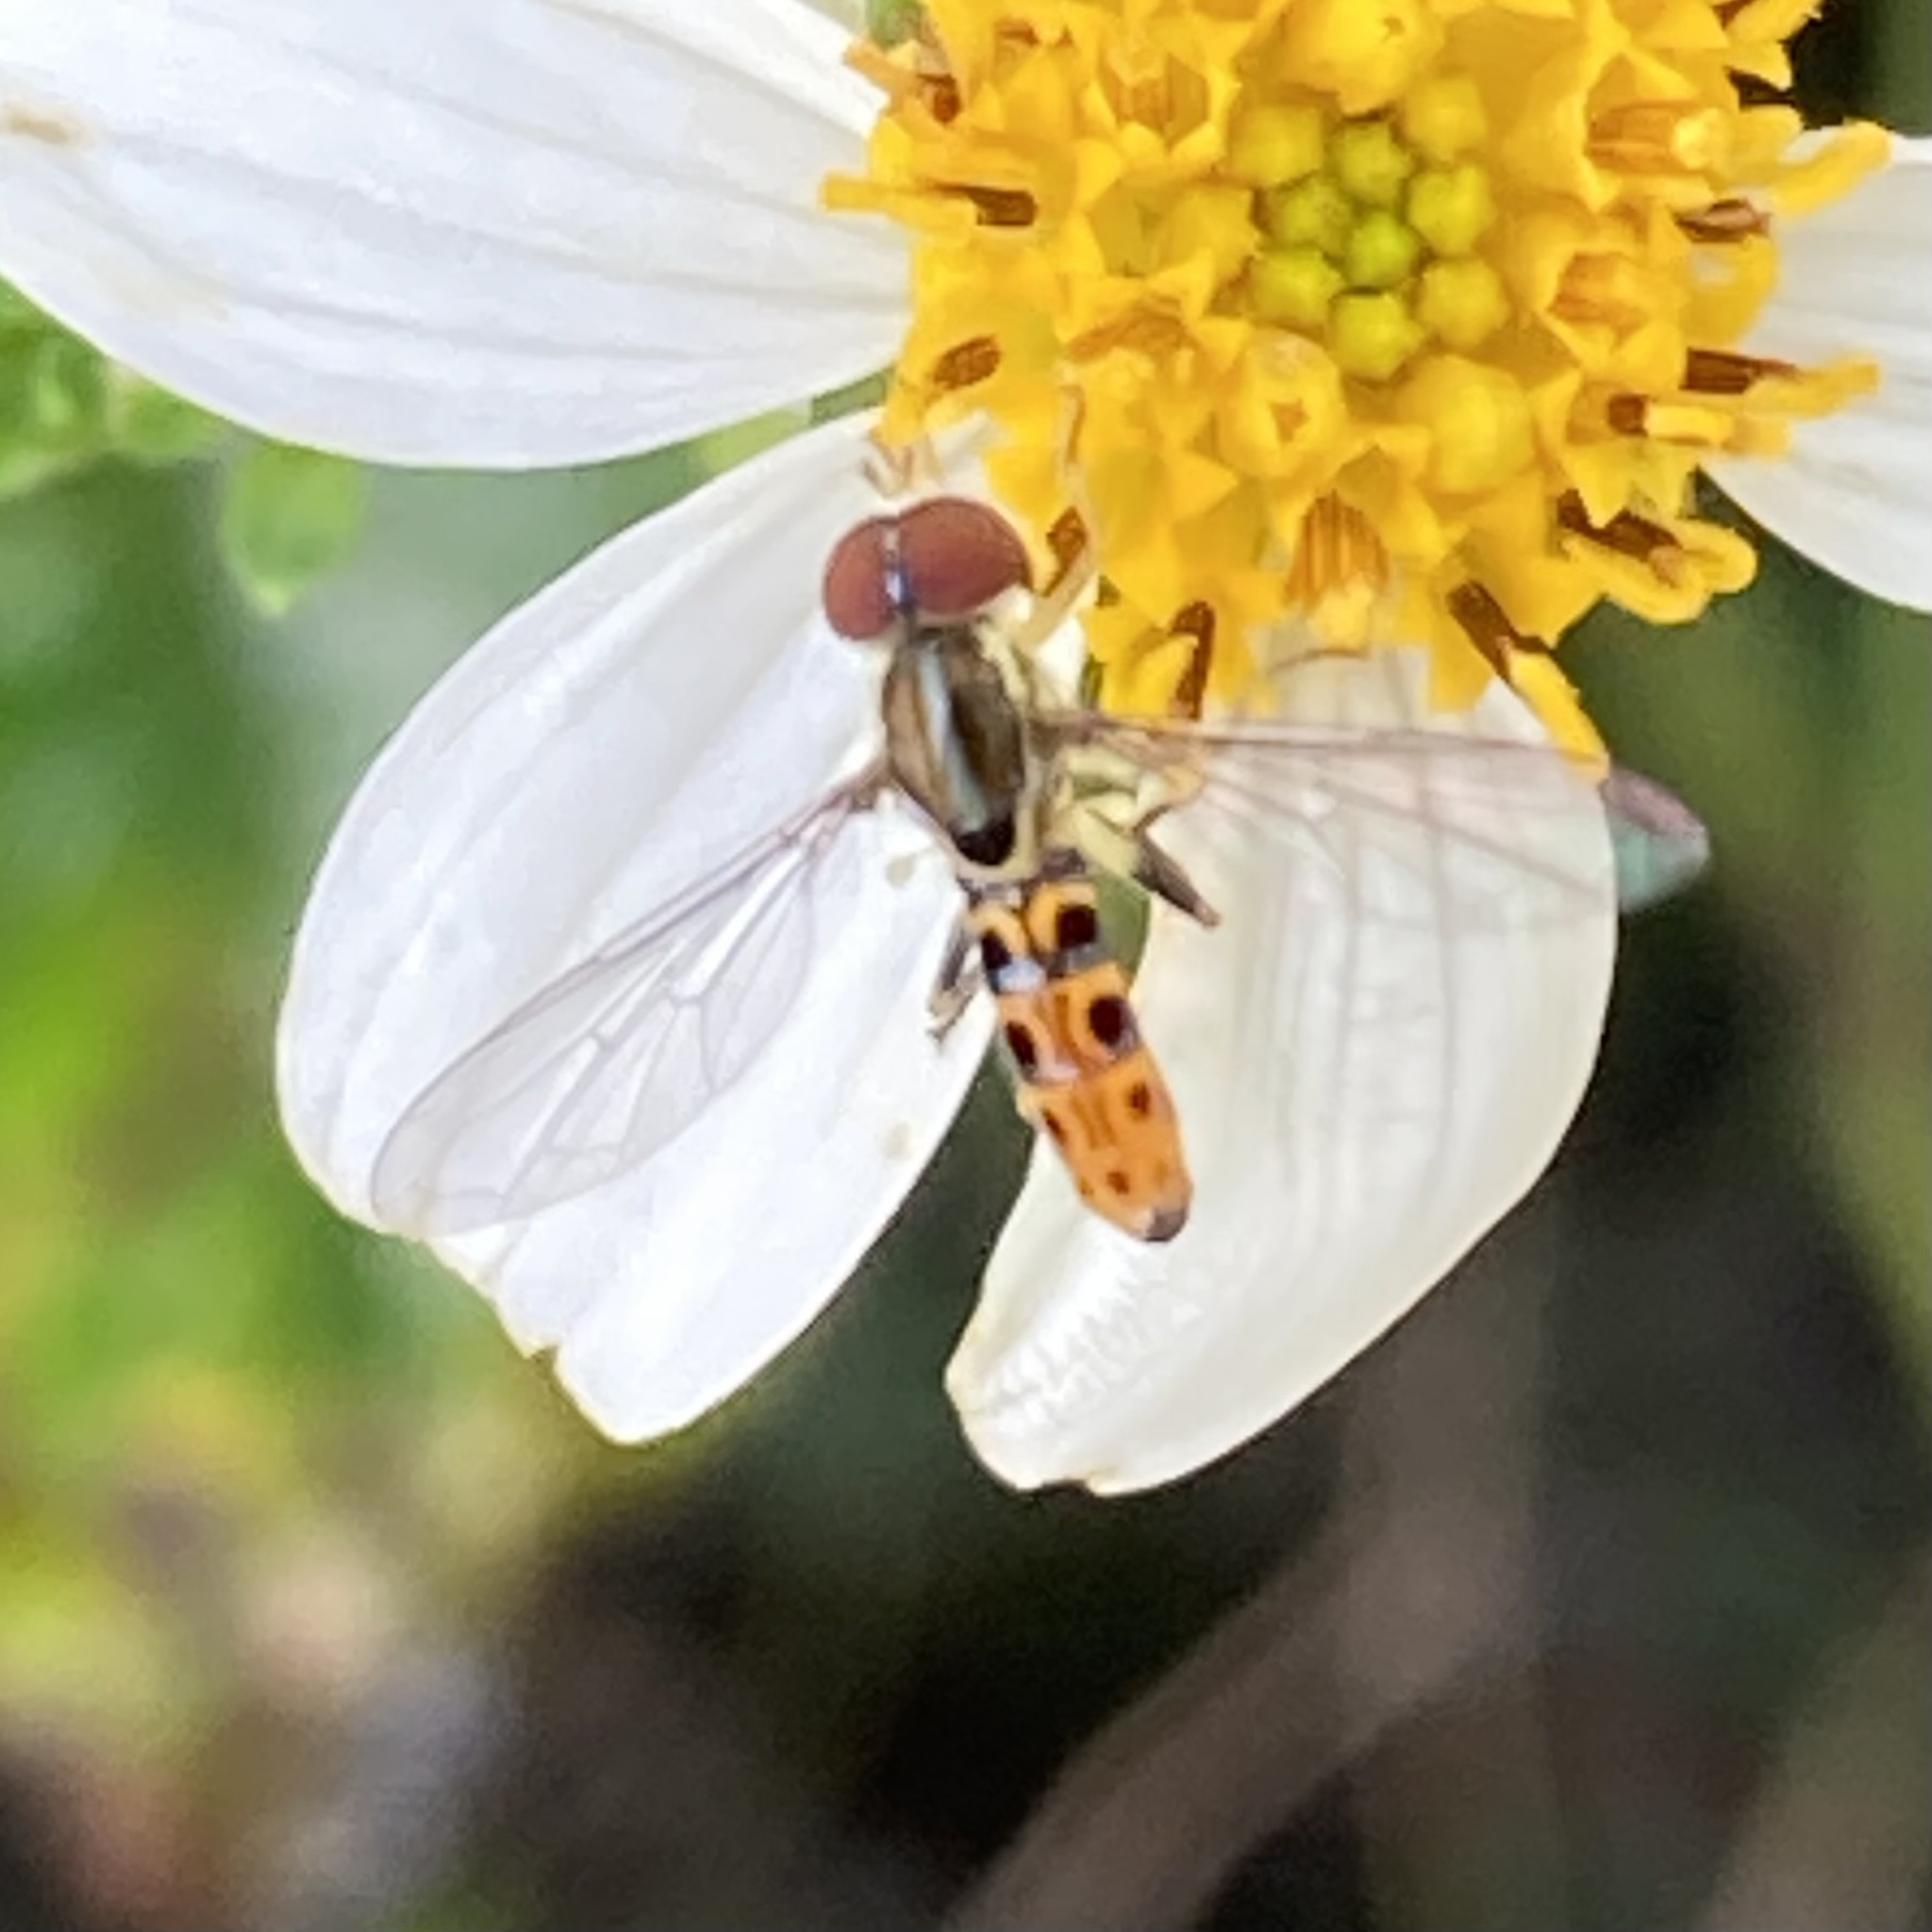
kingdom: Animalia
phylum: Arthropoda
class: Insecta
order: Diptera
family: Syrphidae
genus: Toxomerus
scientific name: Toxomerus arcifer
